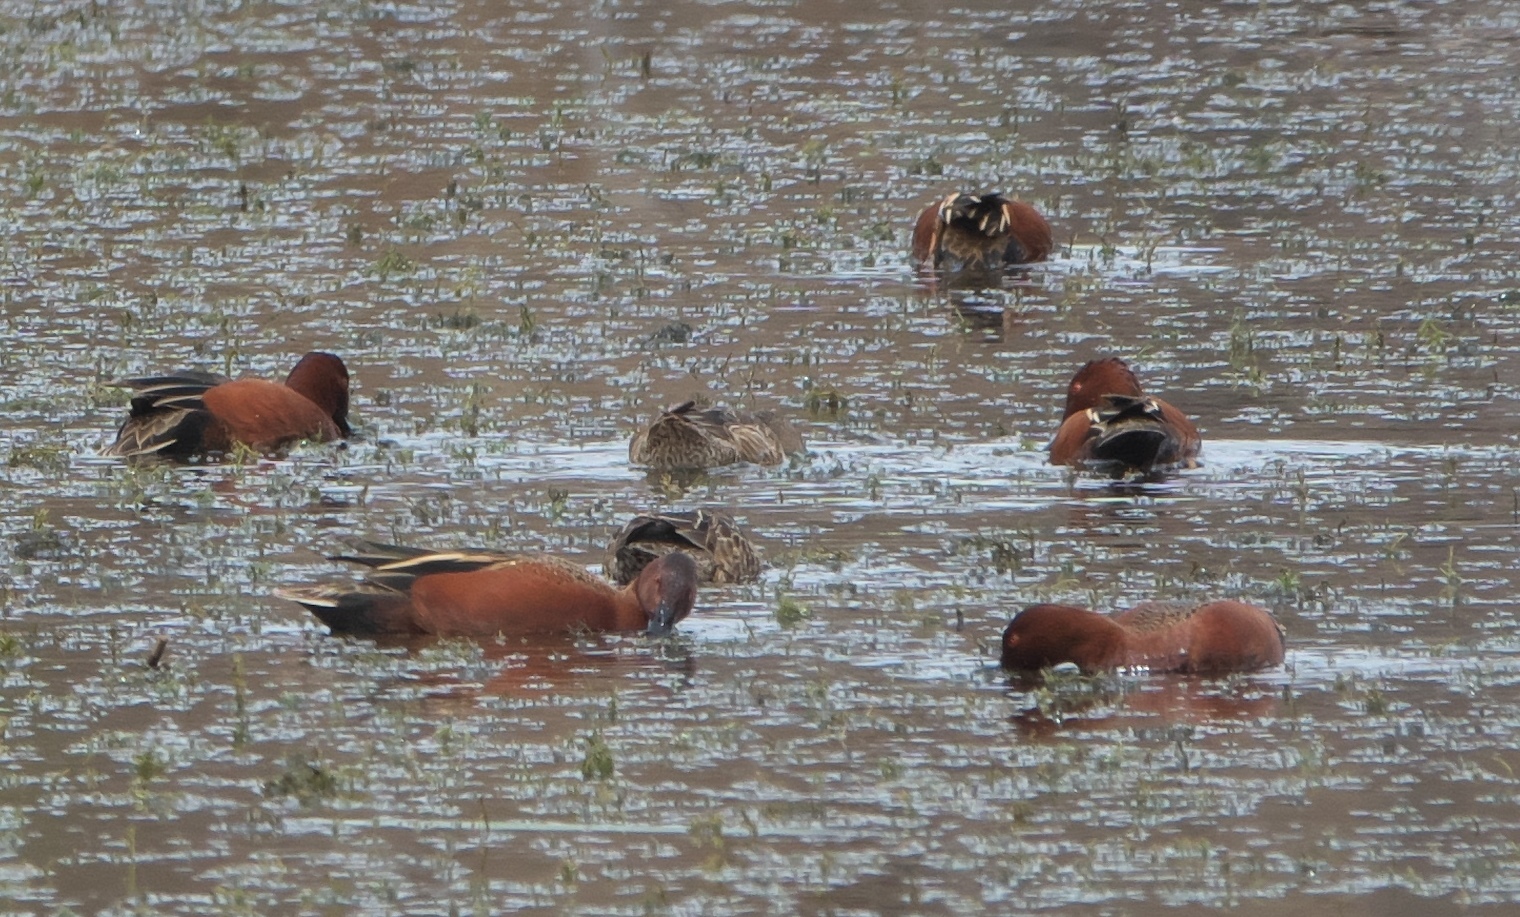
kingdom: Animalia
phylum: Chordata
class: Aves
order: Anseriformes
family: Anatidae
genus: Spatula
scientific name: Spatula cyanoptera
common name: Cinnamon teal
